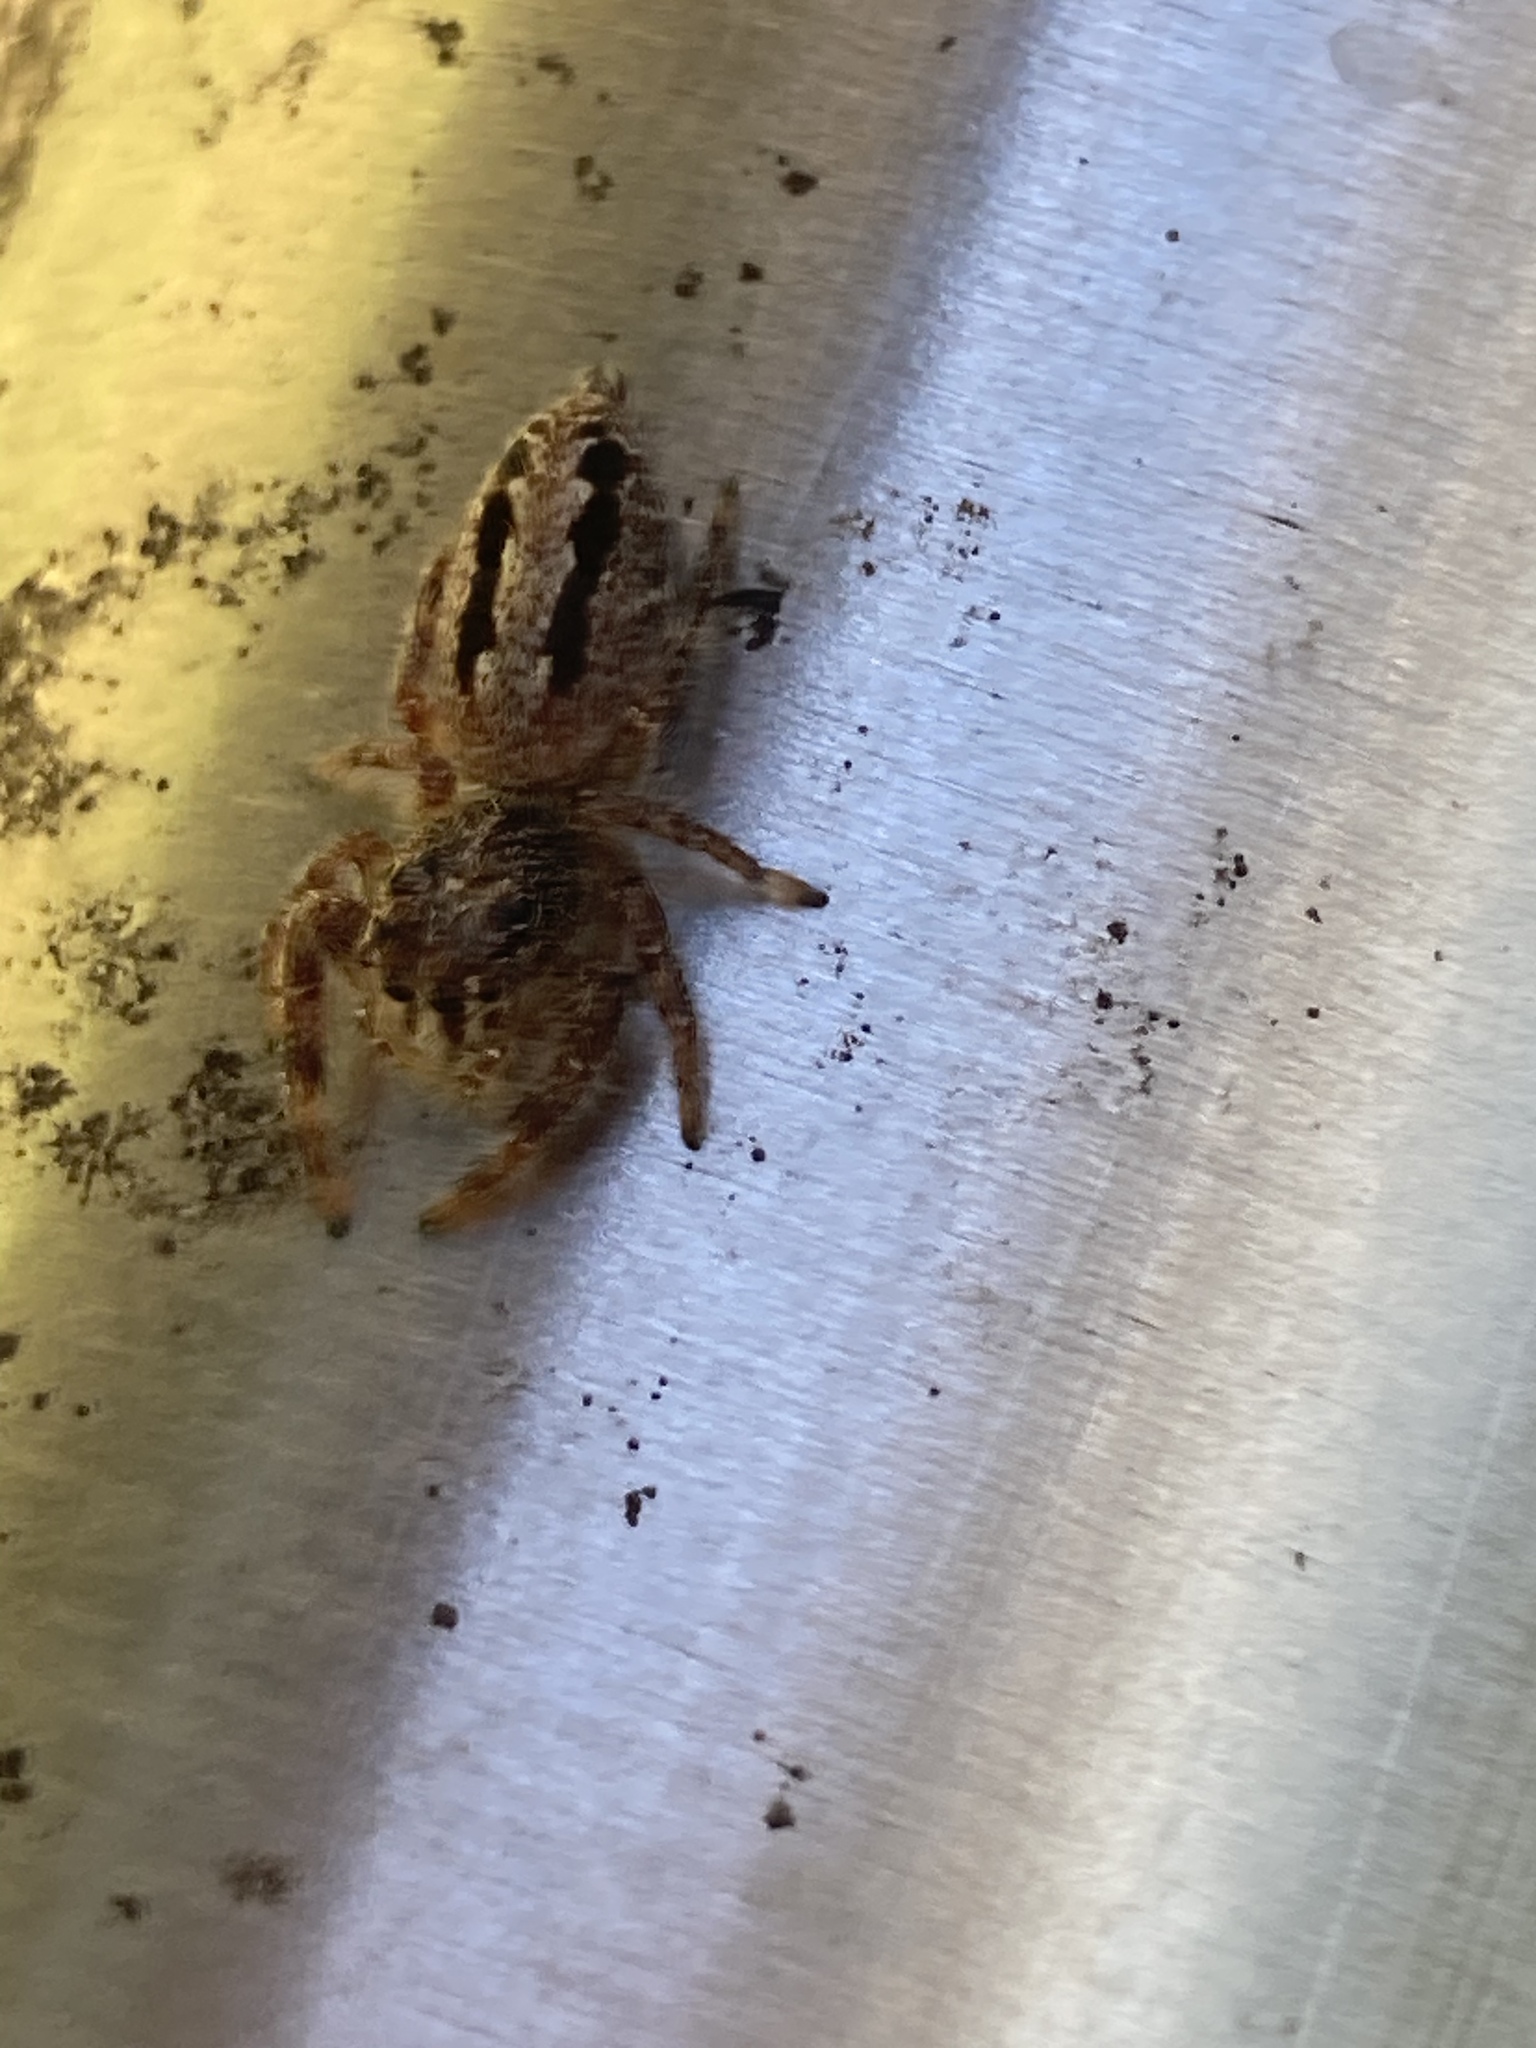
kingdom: Animalia
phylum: Arthropoda
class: Arachnida
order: Araneae
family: Salticidae
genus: Sandalodes
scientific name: Sandalodes superbus
